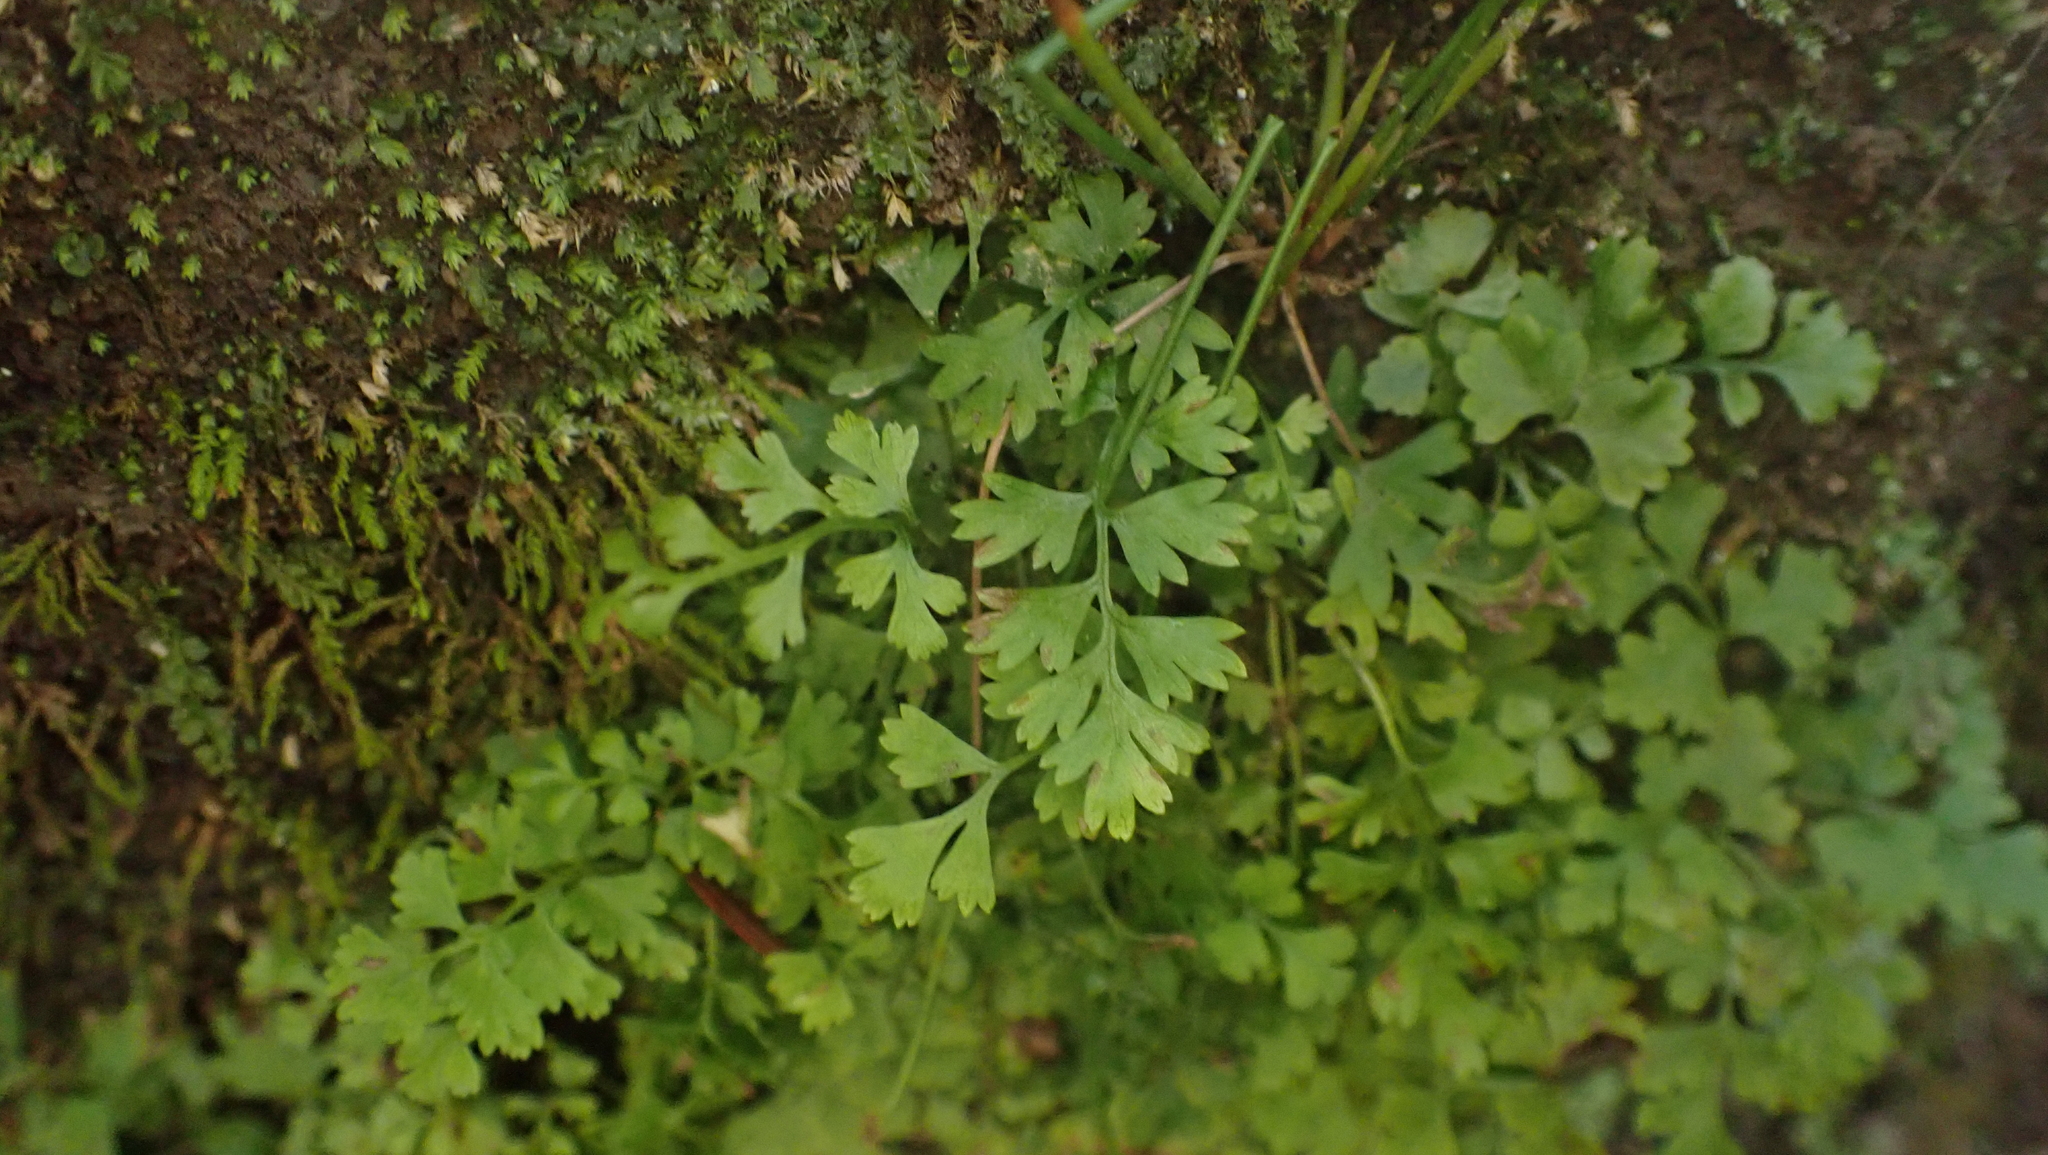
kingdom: Plantae
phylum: Tracheophyta
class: Polypodiopsida
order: Polypodiales
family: Aspleniaceae
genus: Asplenium
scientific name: Asplenium ruta-muraria
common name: Wall-rue
